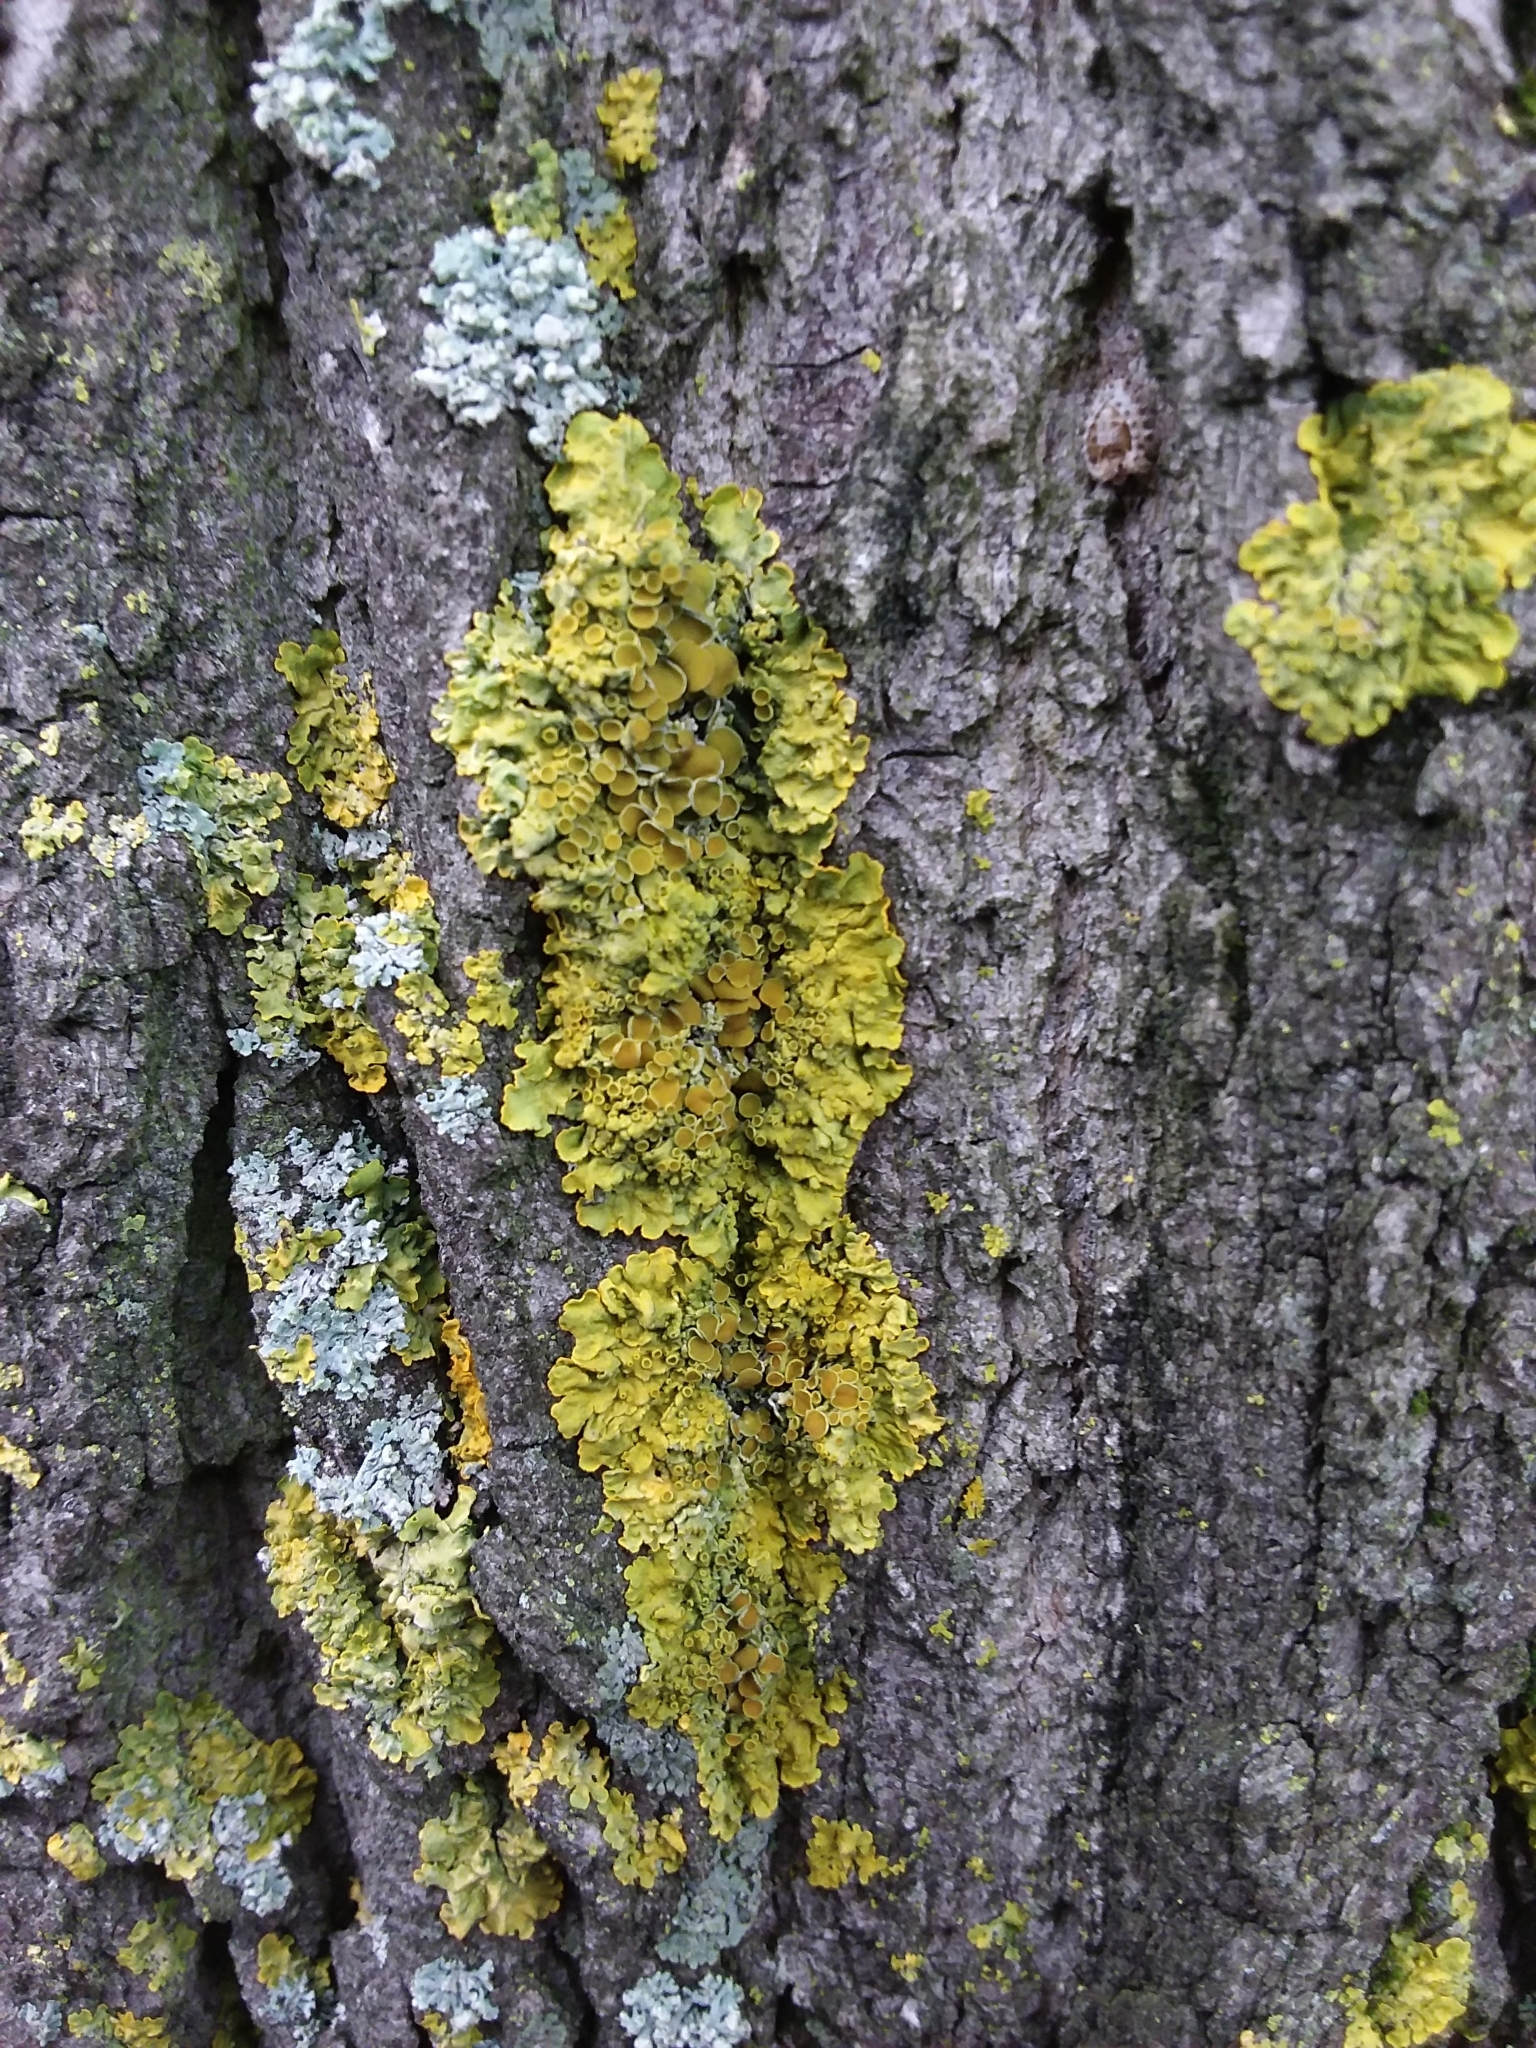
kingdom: Fungi
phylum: Ascomycota
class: Lecanoromycetes
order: Teloschistales
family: Teloschistaceae
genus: Xanthoria
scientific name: Xanthoria parietina
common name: Common orange lichen
